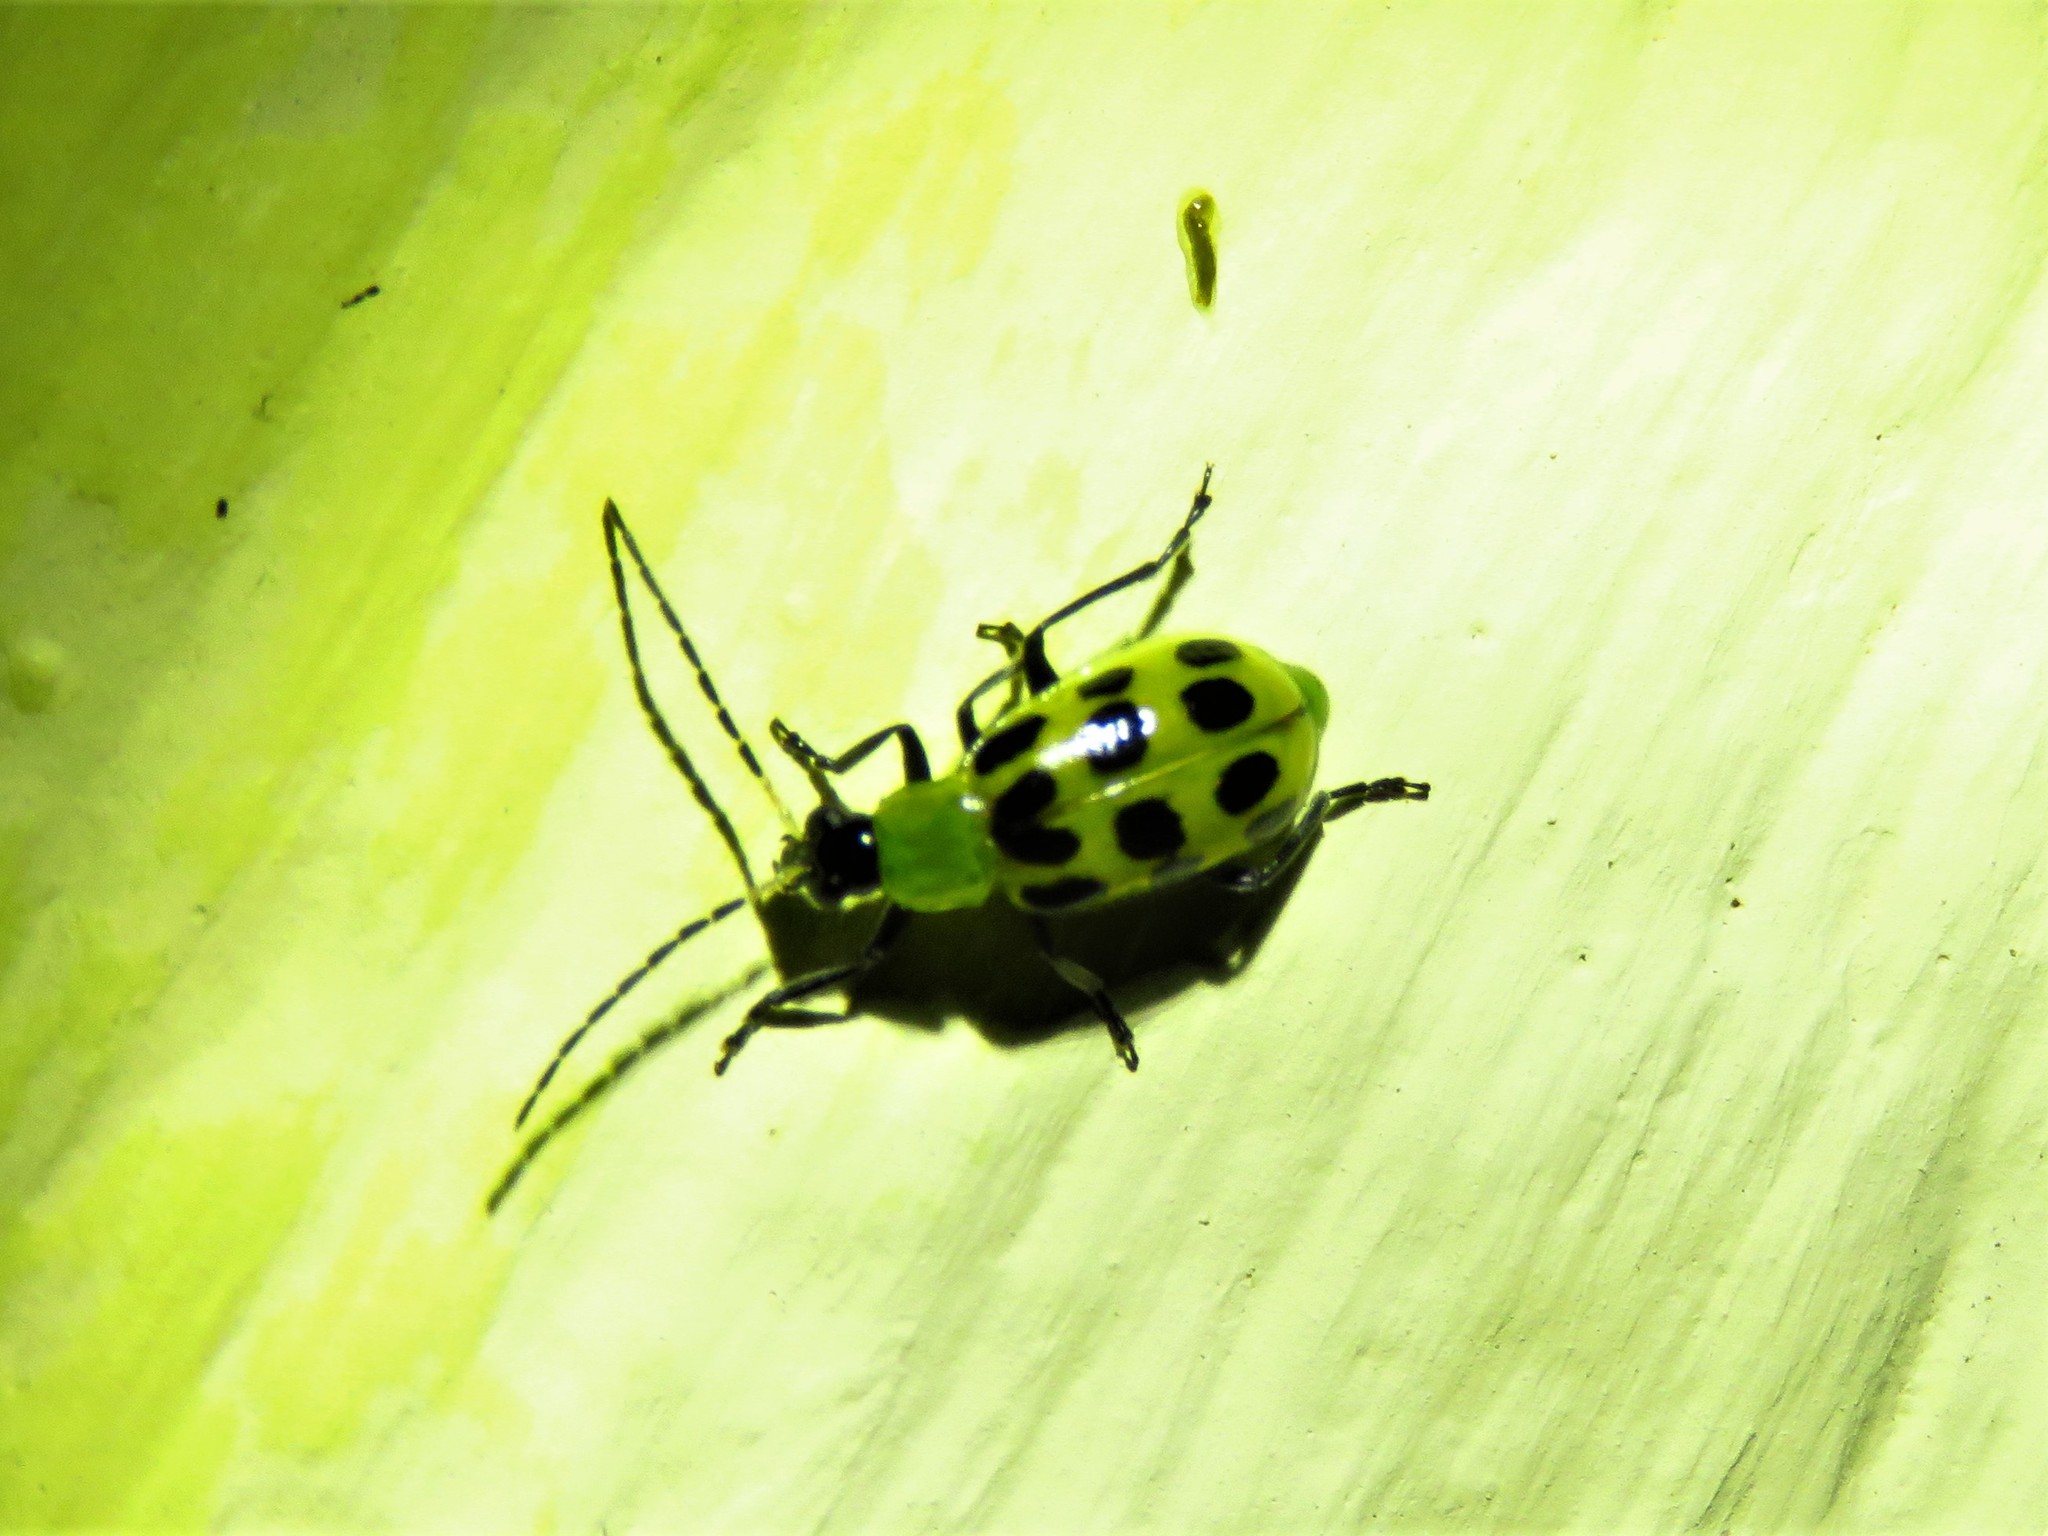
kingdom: Animalia
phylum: Arthropoda
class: Insecta
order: Coleoptera
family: Chrysomelidae
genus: Diabrotica
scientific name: Diabrotica undecimpunctata
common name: Spotted cucumber beetle
